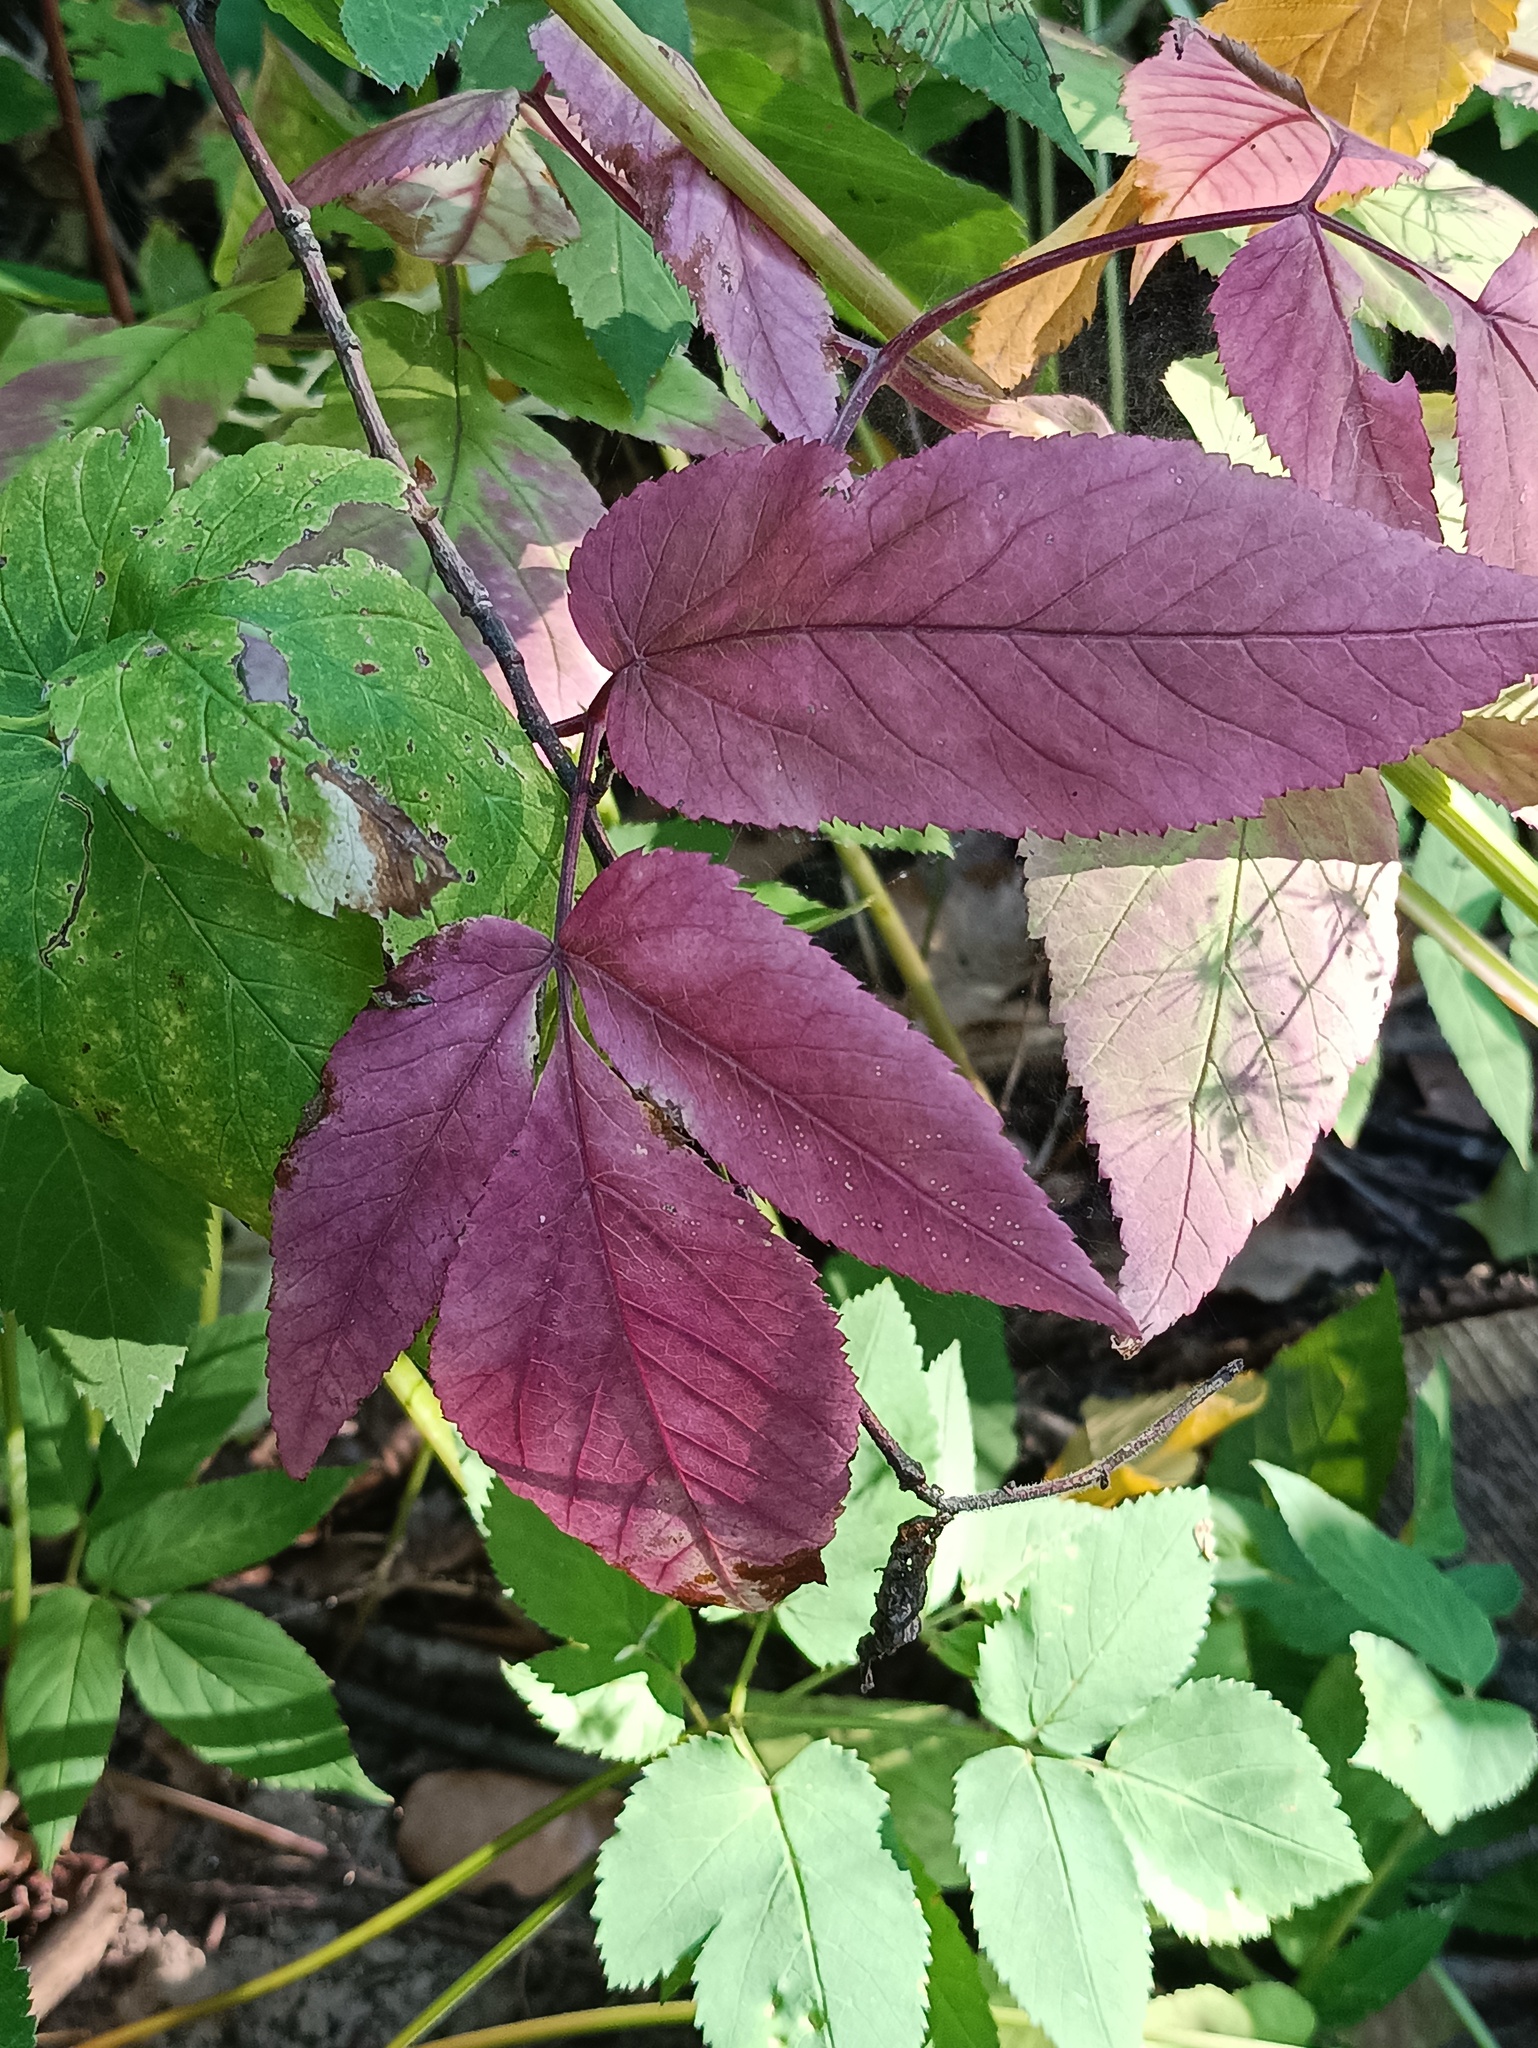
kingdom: Plantae
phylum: Tracheophyta
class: Magnoliopsida
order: Apiales
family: Apiaceae
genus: Aegopodium
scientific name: Aegopodium podagraria
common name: Ground-elder
